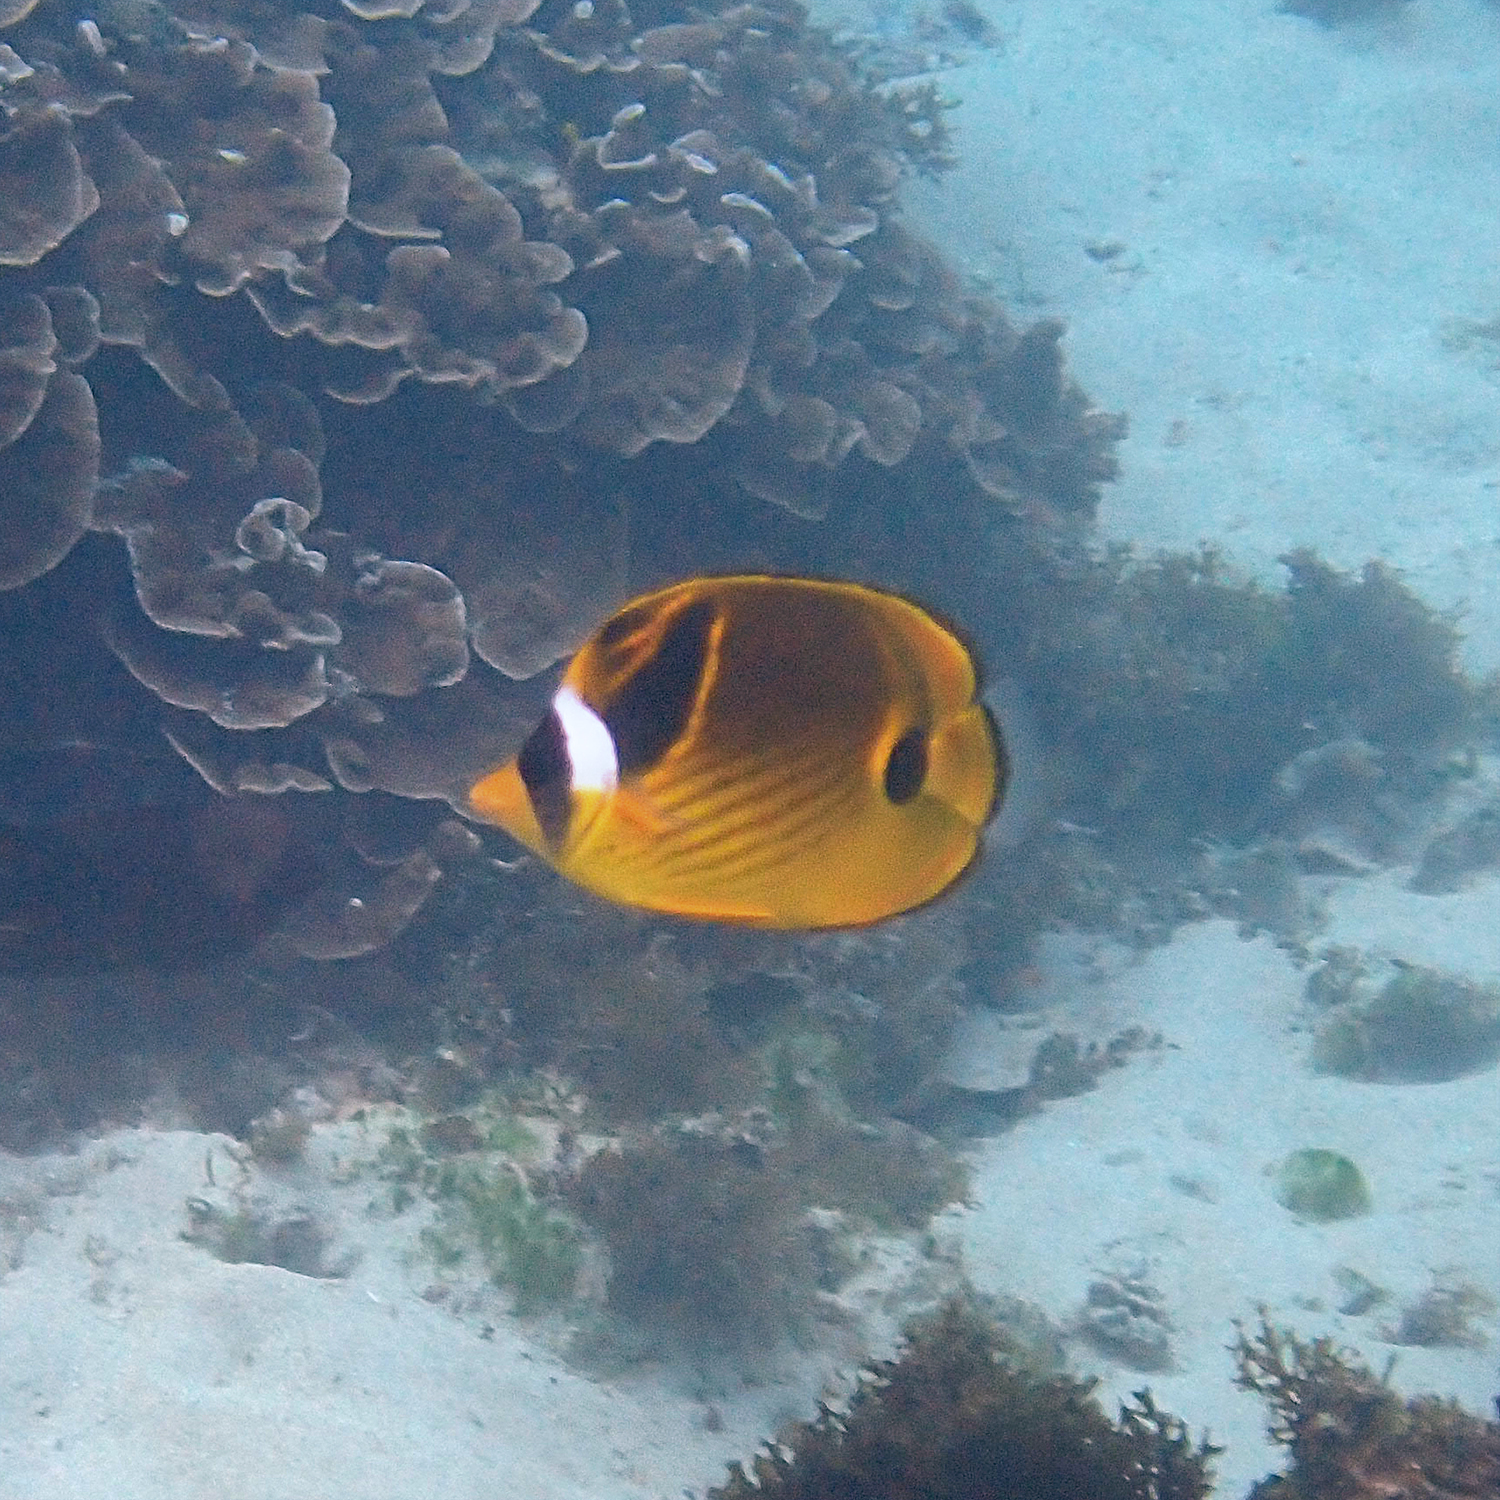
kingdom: Animalia
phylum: Chordata
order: Perciformes
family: Chaetodontidae
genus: Chaetodon
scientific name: Chaetodon lunula
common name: Raccoon butterflyfish
